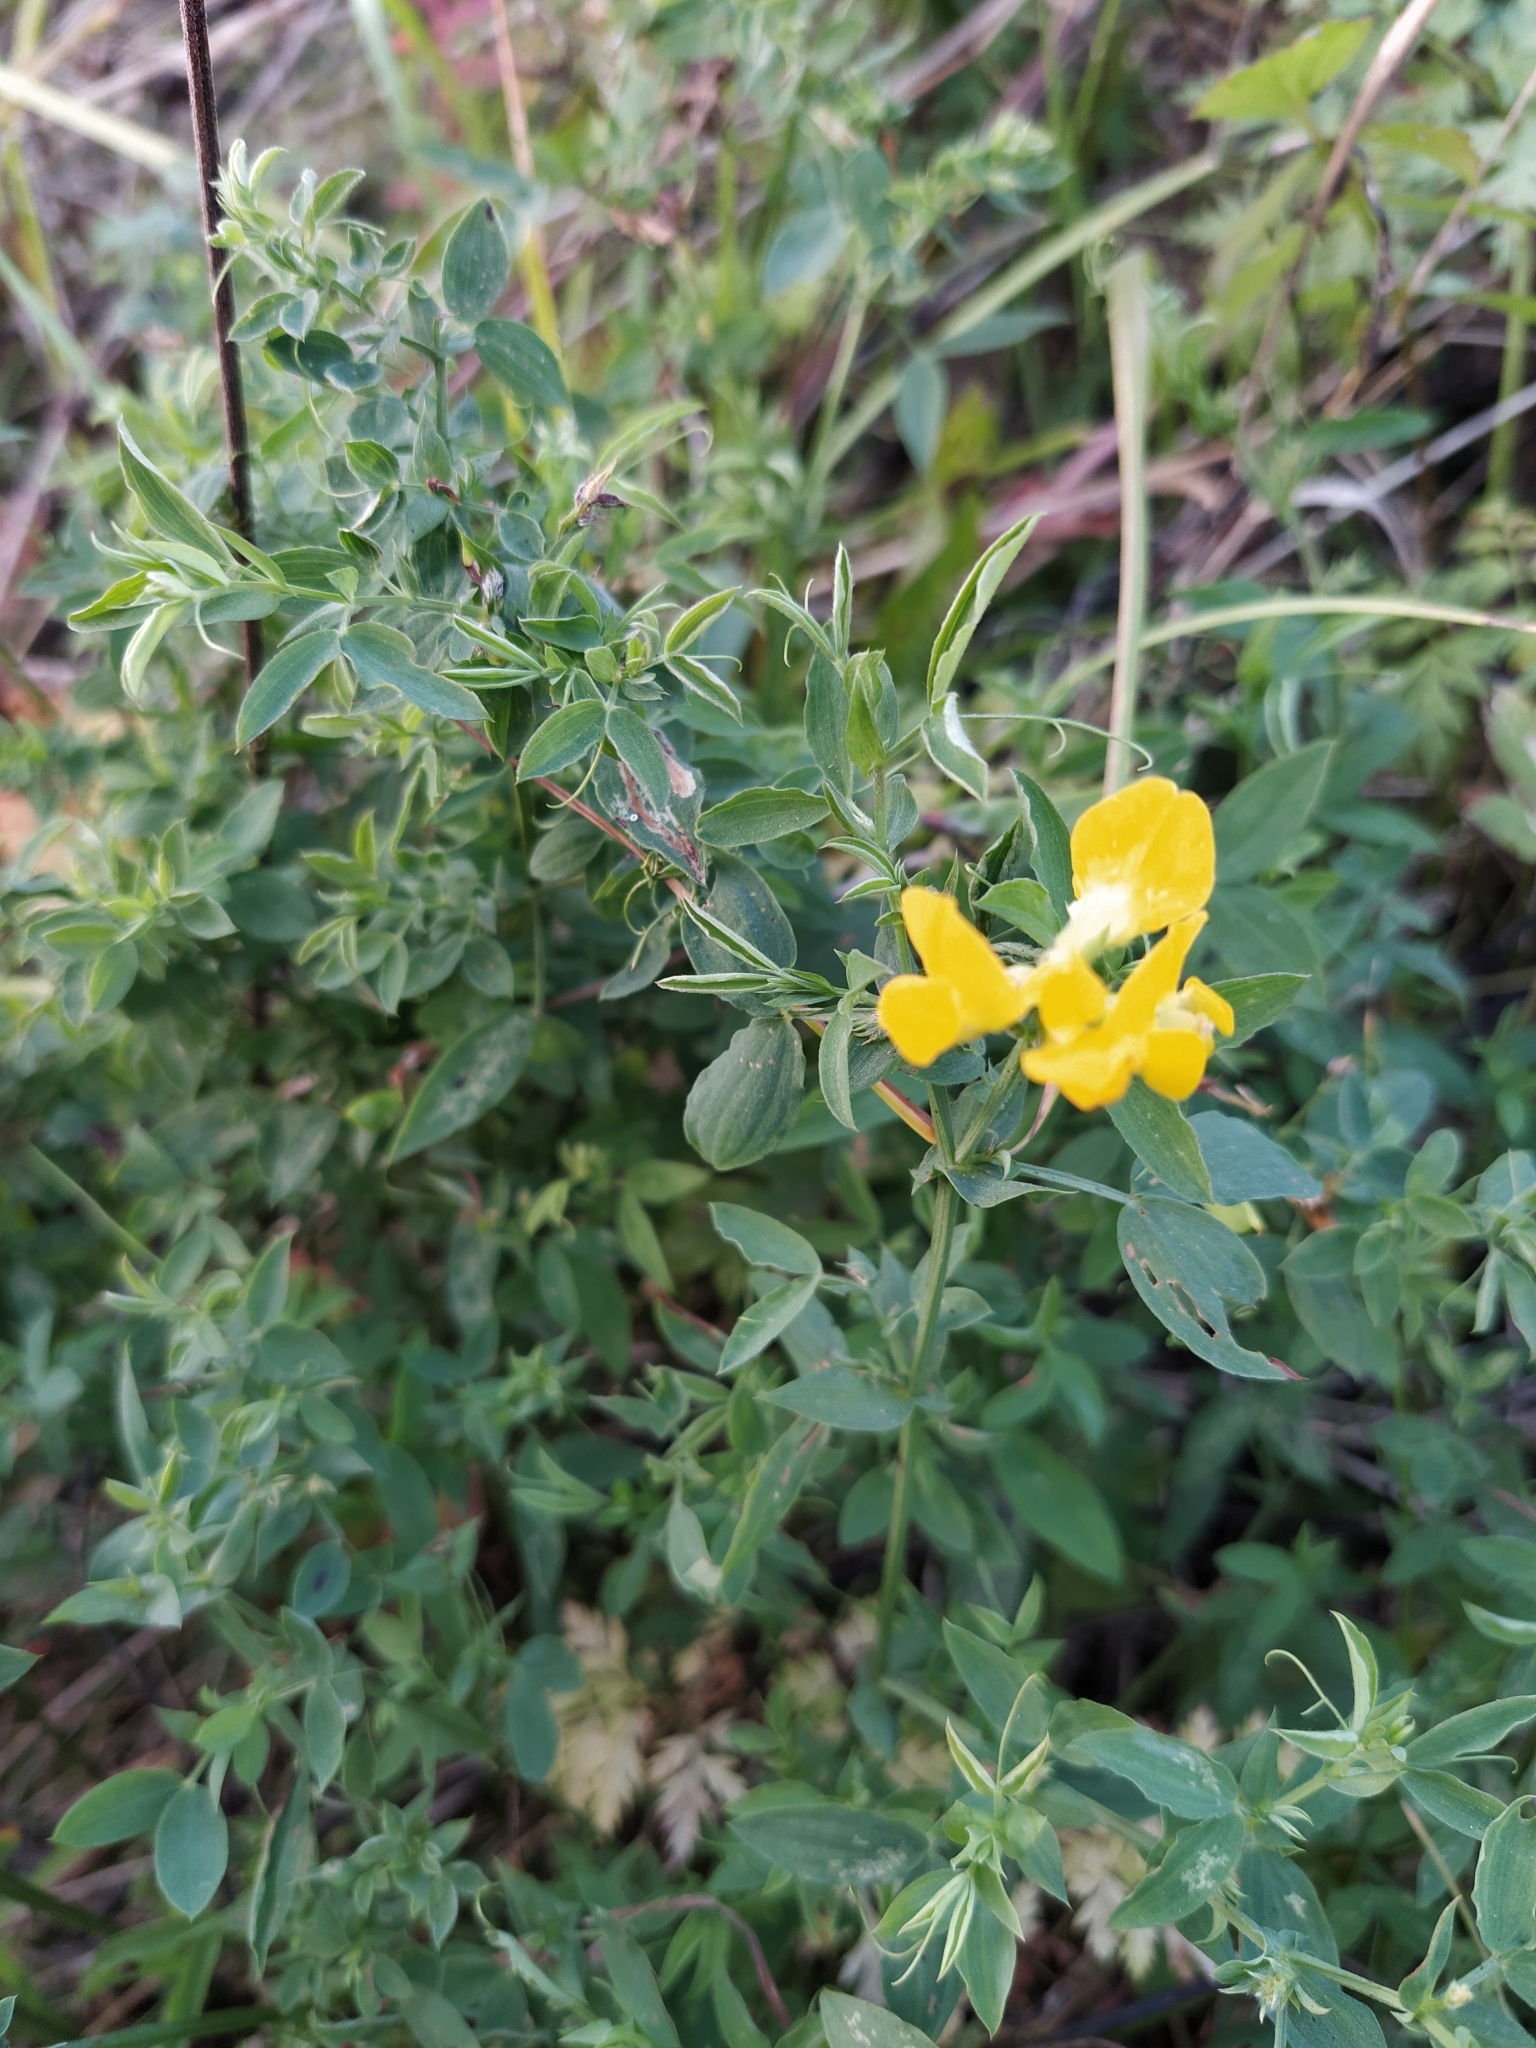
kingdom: Plantae
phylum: Tracheophyta
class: Magnoliopsida
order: Fabales
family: Fabaceae
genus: Lathyrus
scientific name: Lathyrus pratensis
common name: Meadow vetchling
